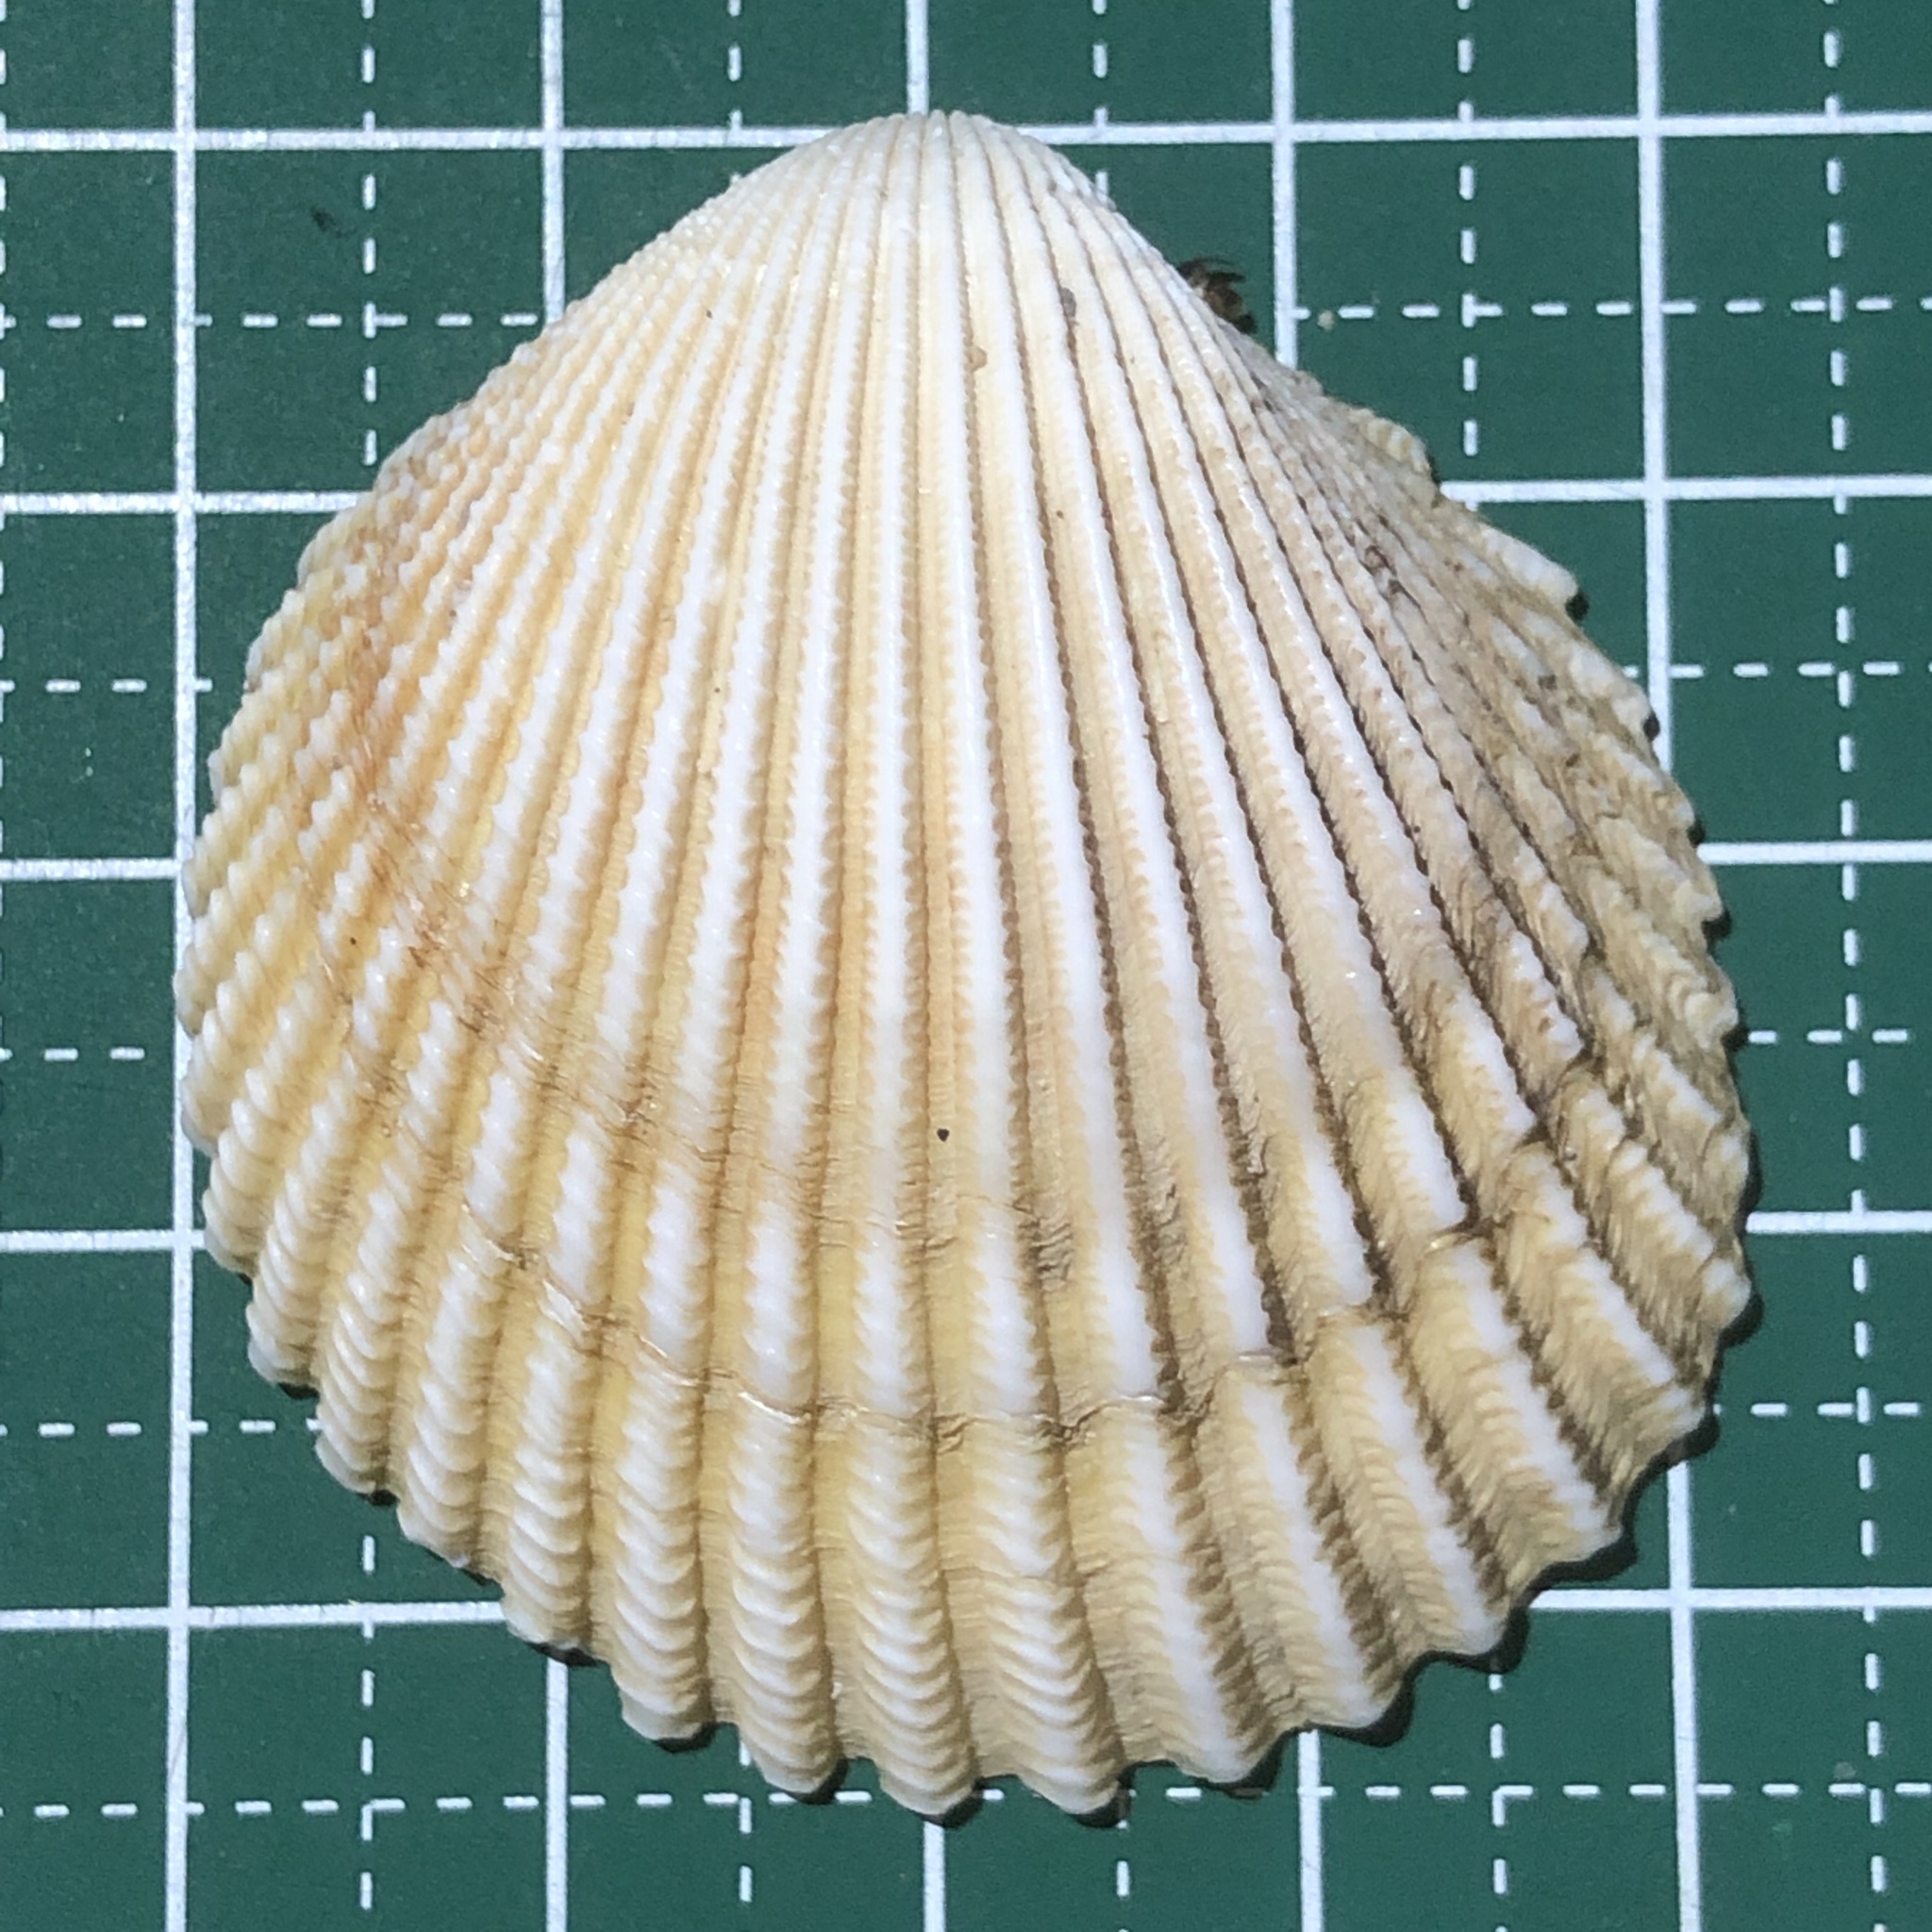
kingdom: Animalia
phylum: Mollusca
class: Bivalvia
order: Cardiida
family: Cardiidae
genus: Vasticardium
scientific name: Vasticardium flavum
